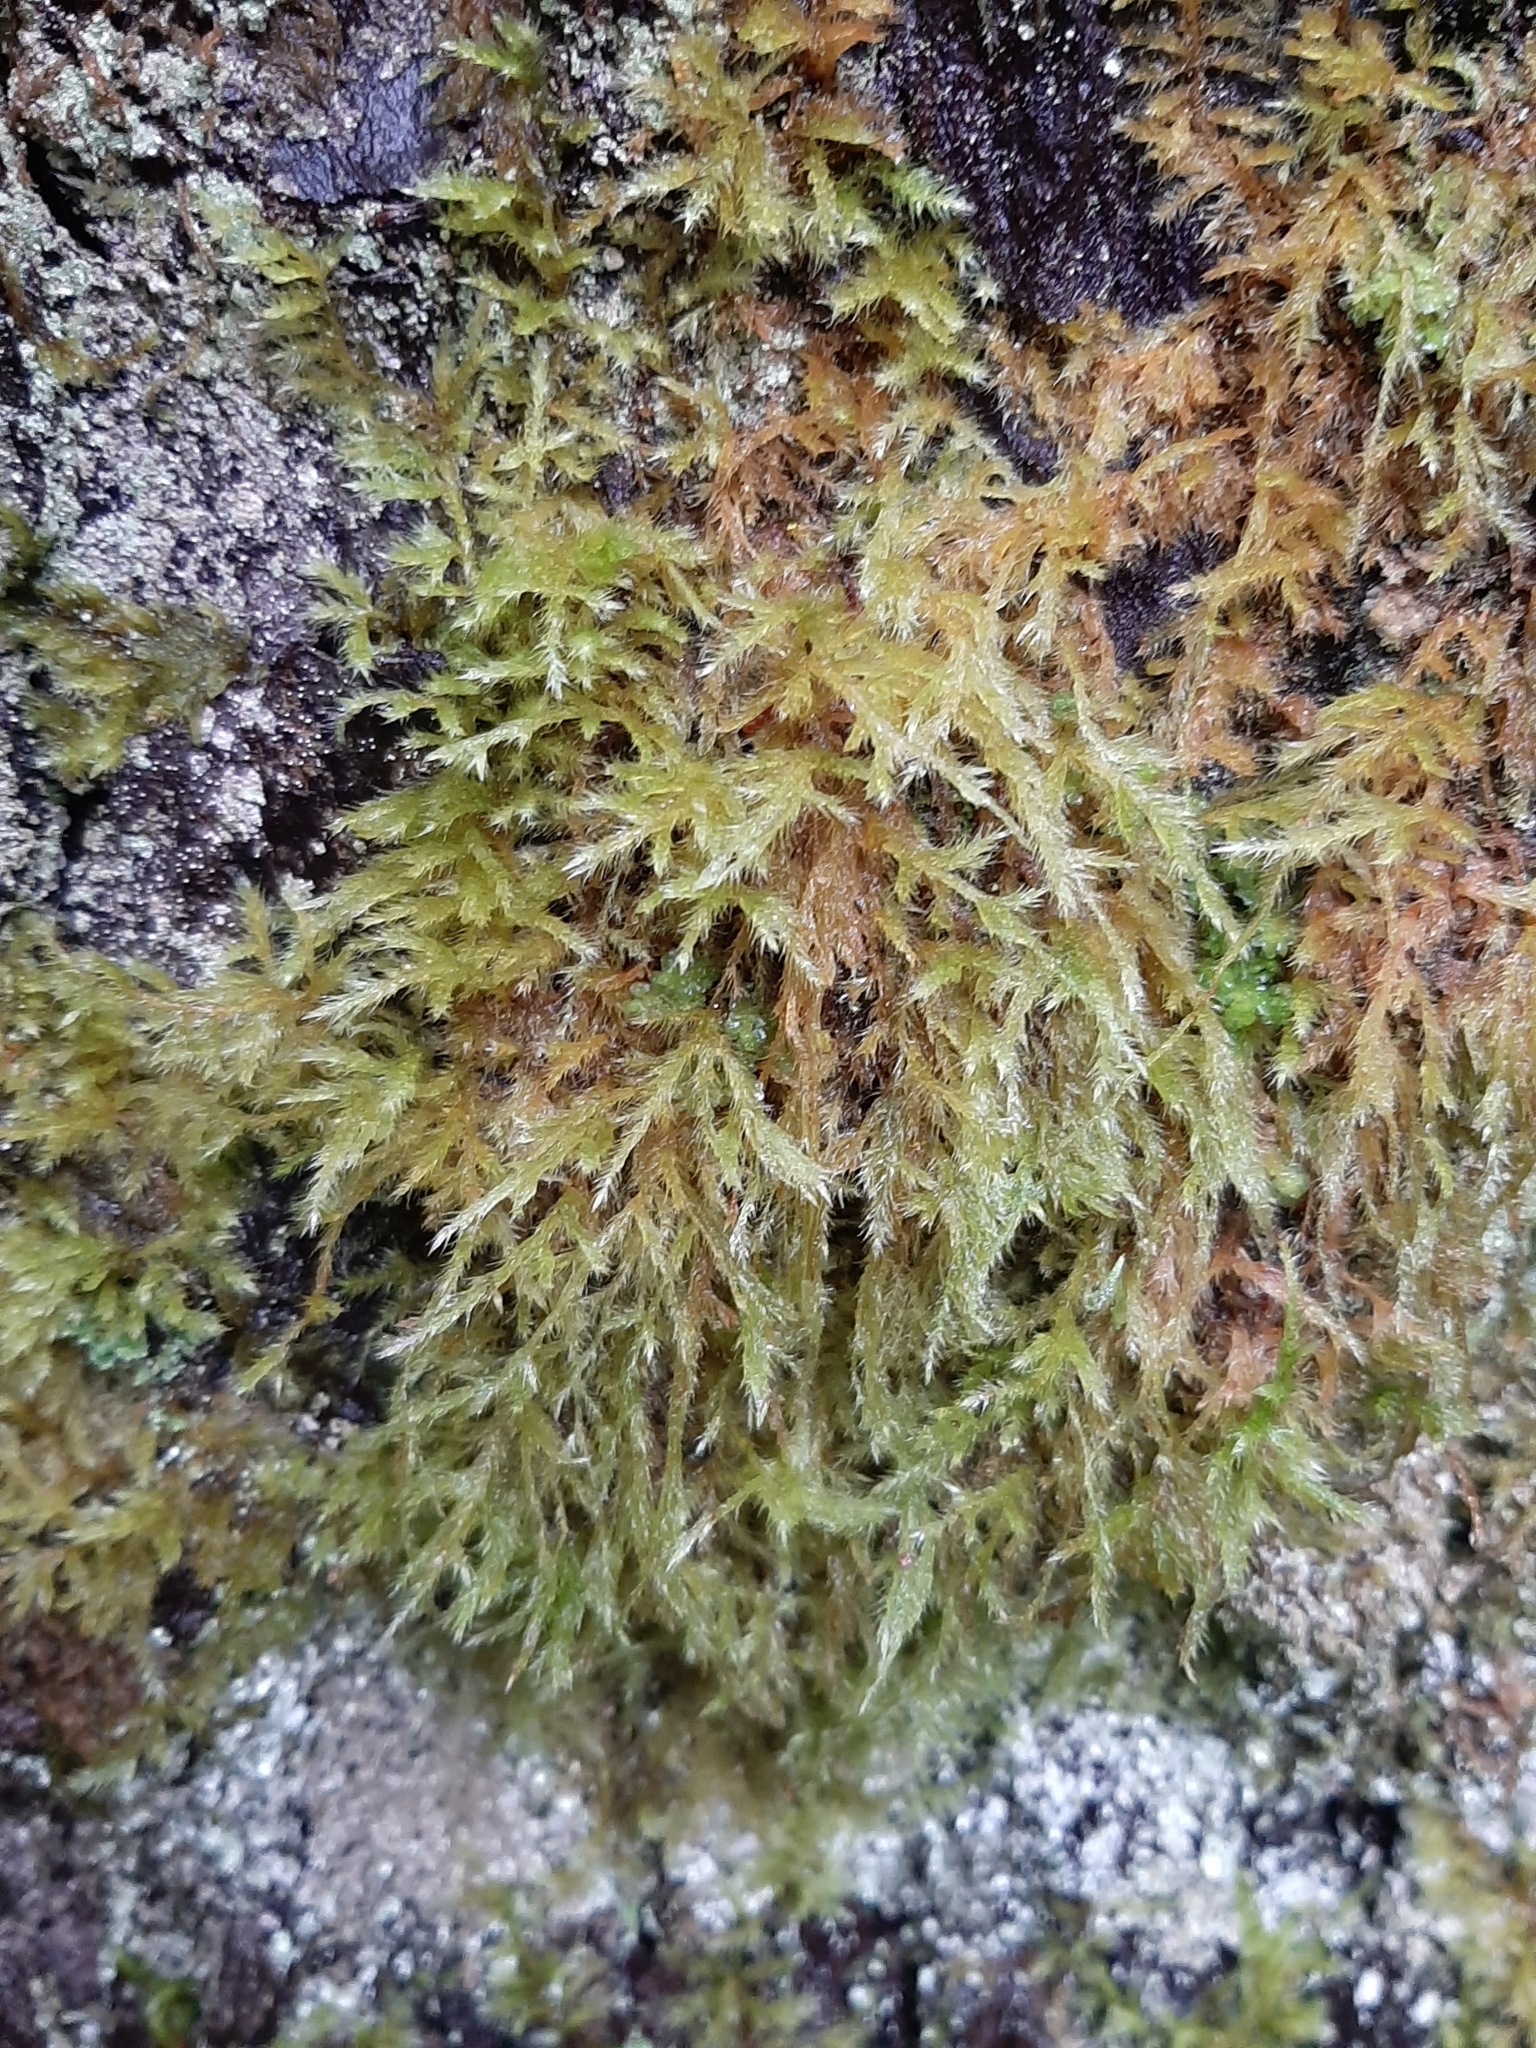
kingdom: Plantae
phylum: Bryophyta
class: Bryopsida
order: Hypnales
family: Lembophyllaceae
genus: Pseudisothecium
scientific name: Pseudisothecium stoloniferum
